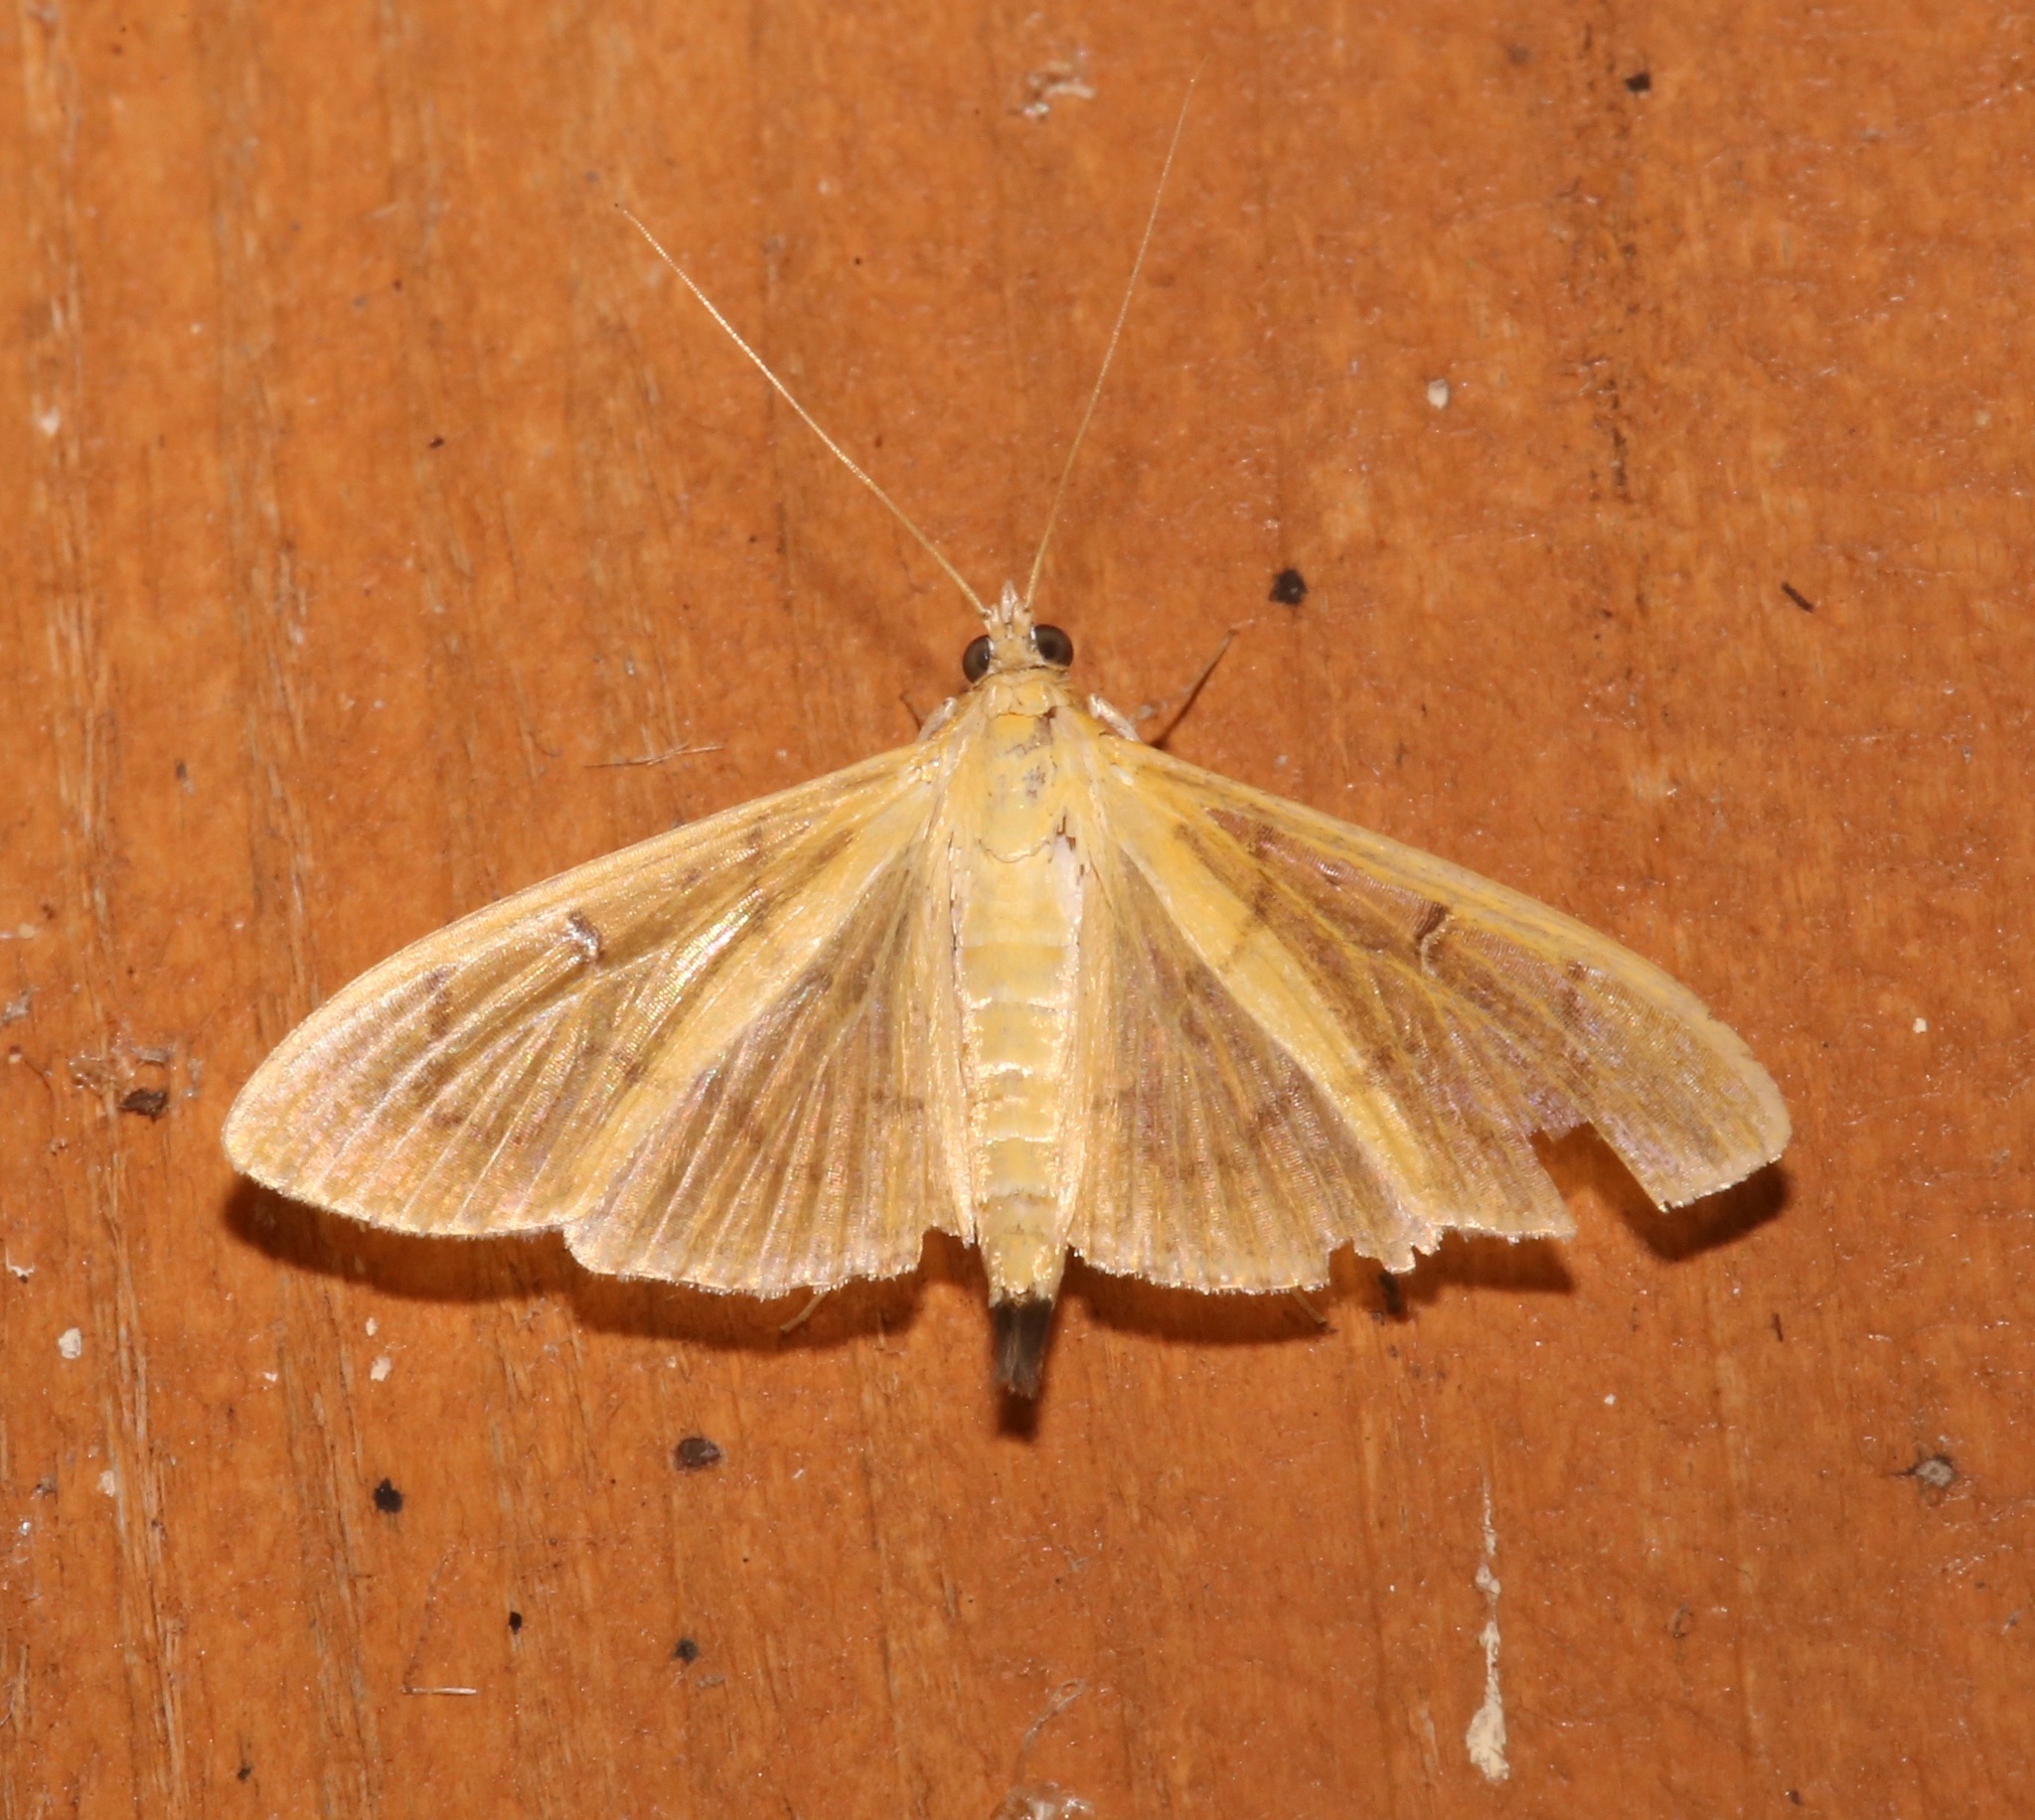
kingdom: Animalia
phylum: Arthropoda
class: Insecta
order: Lepidoptera
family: Crambidae
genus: Condylorrhiza
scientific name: Condylorrhiza vestigialis
